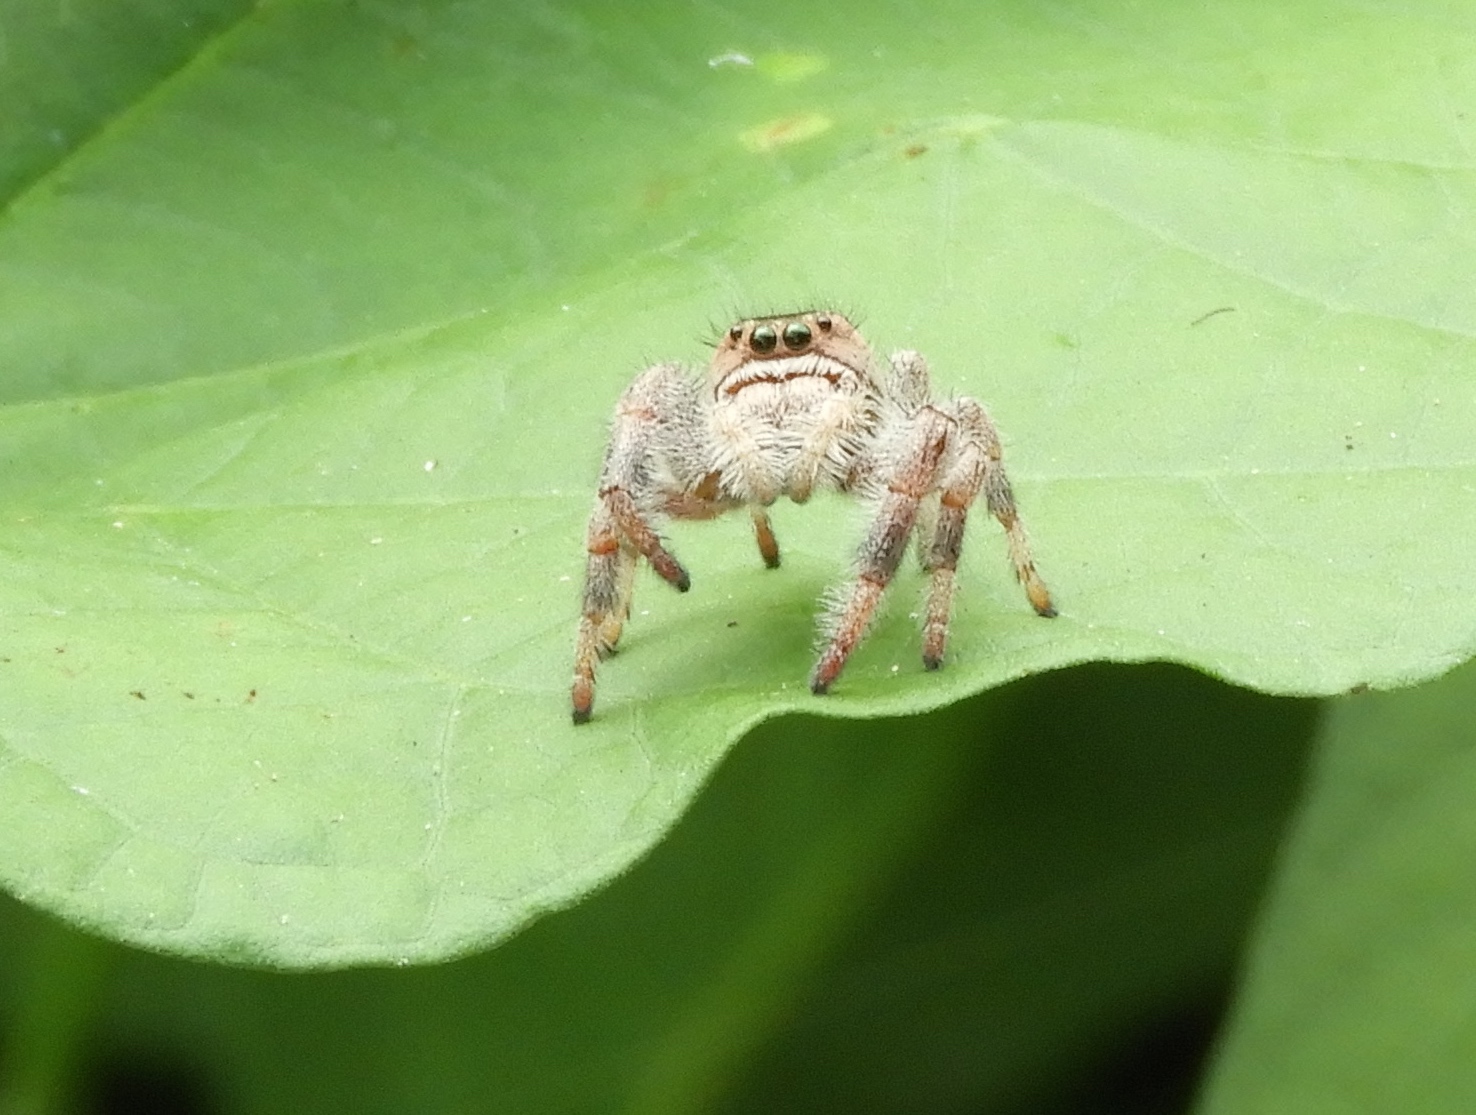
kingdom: Animalia
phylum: Arthropoda
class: Arachnida
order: Araneae
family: Salticidae
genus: Paraphidippus
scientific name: Paraphidippus
